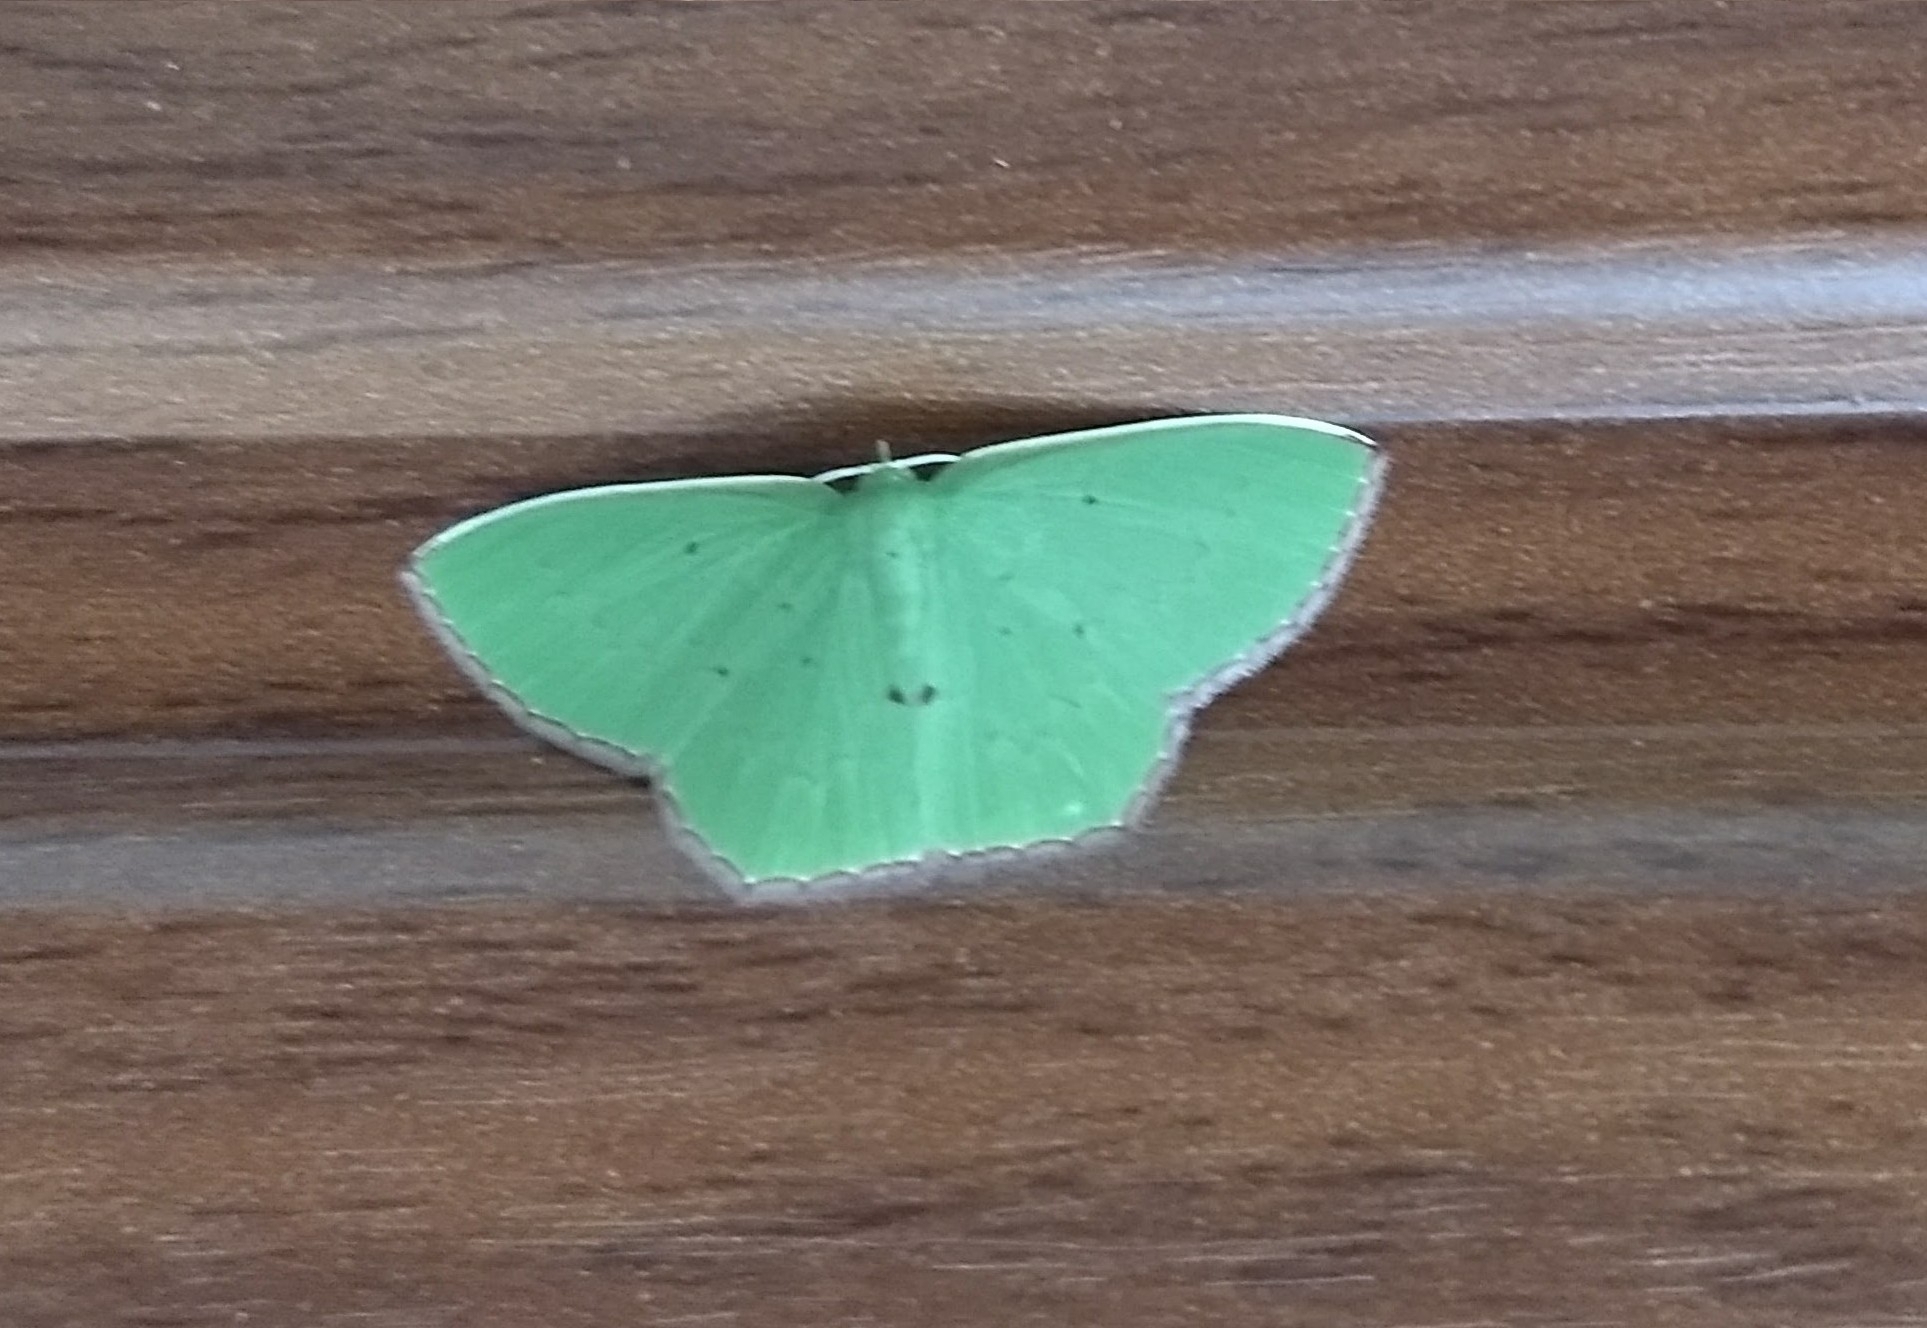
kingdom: Animalia
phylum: Arthropoda
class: Insecta
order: Lepidoptera
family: Geometridae
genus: Oenospila
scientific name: Oenospila flavifusata
